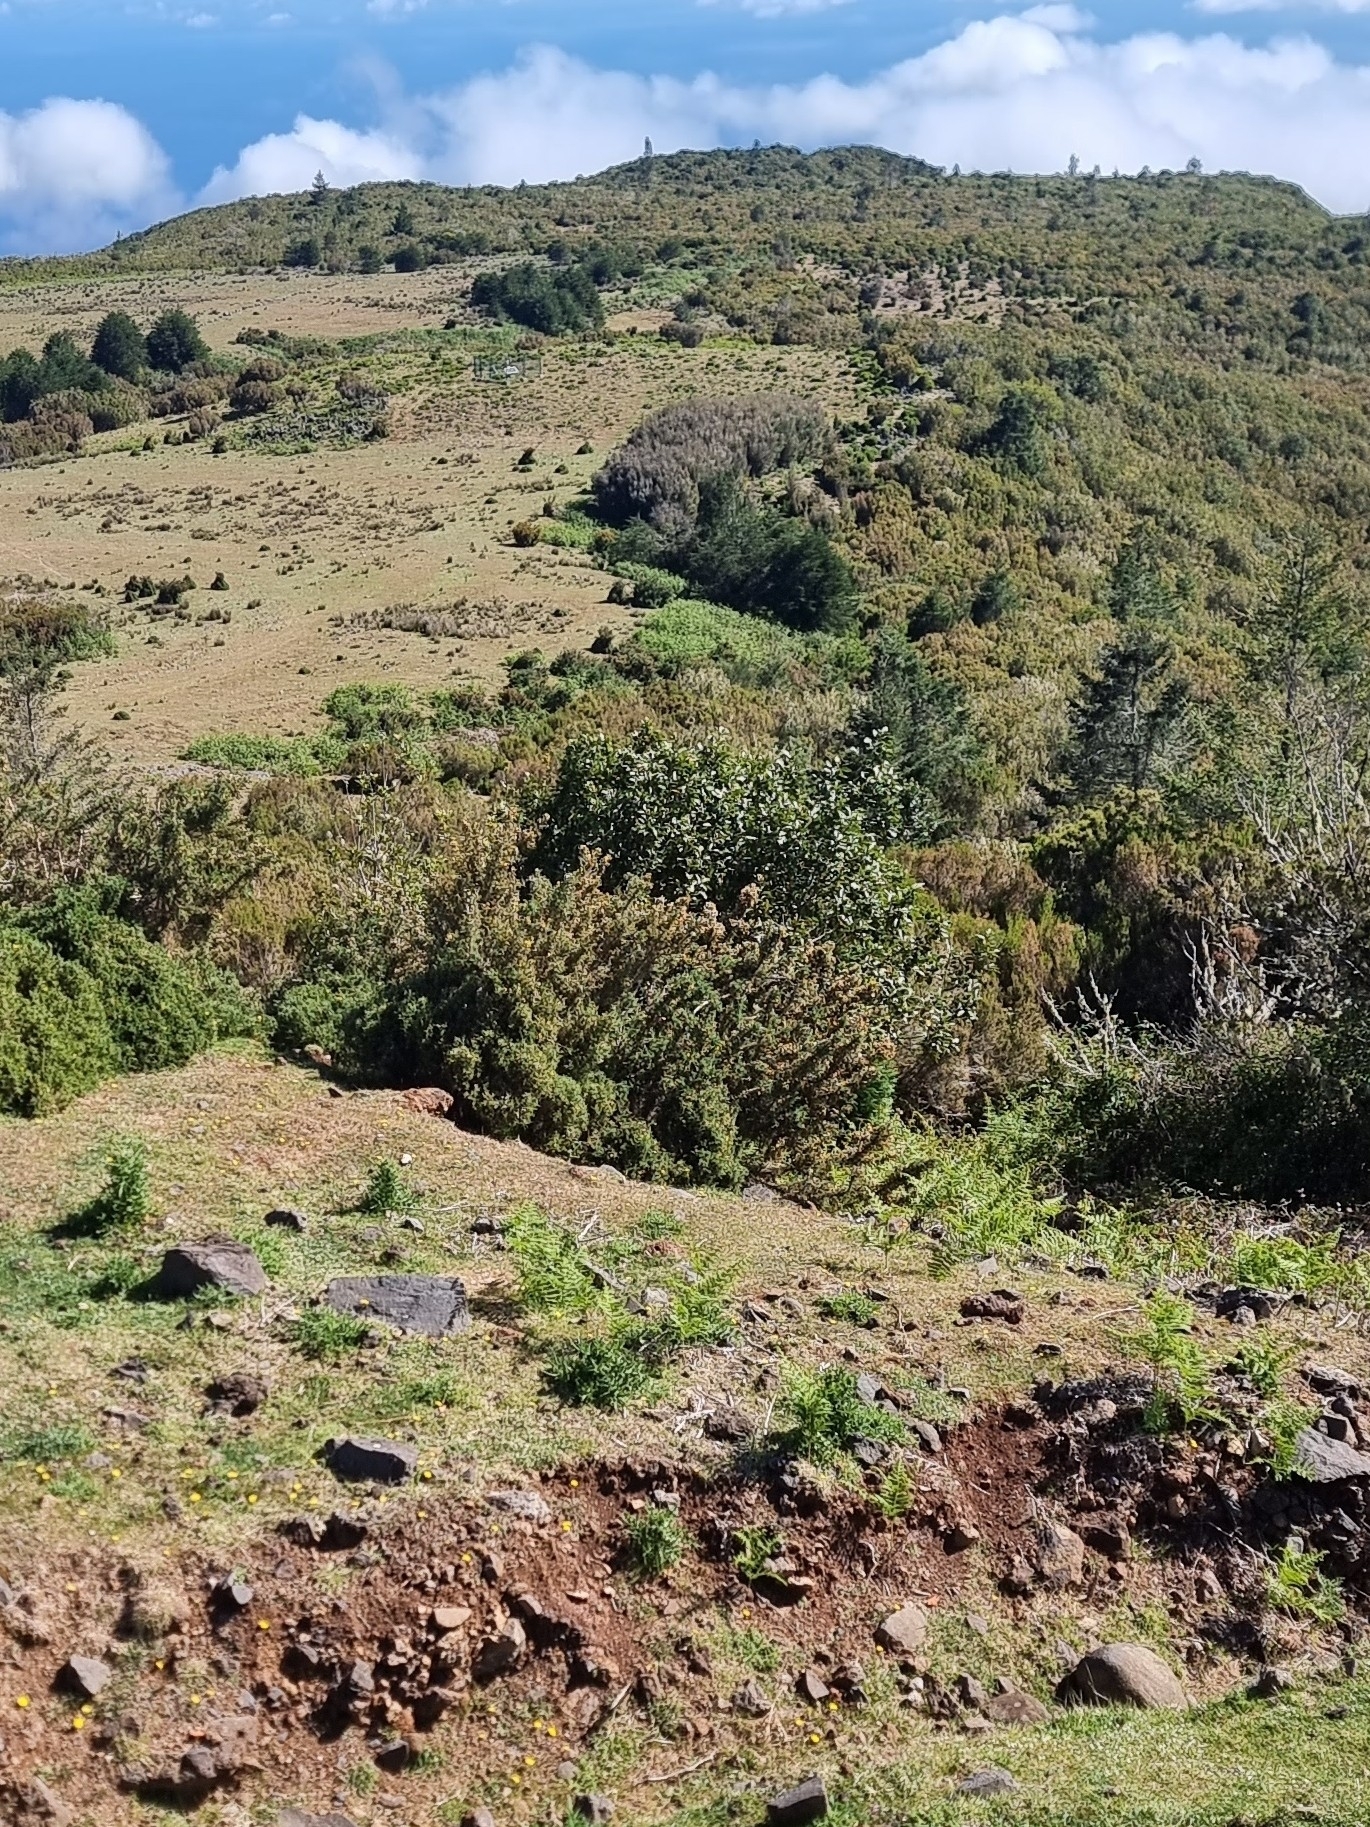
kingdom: Plantae
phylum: Tracheophyta
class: Magnoliopsida
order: Laurales
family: Lauraceae
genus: Laurus
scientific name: Laurus novocanariensis
